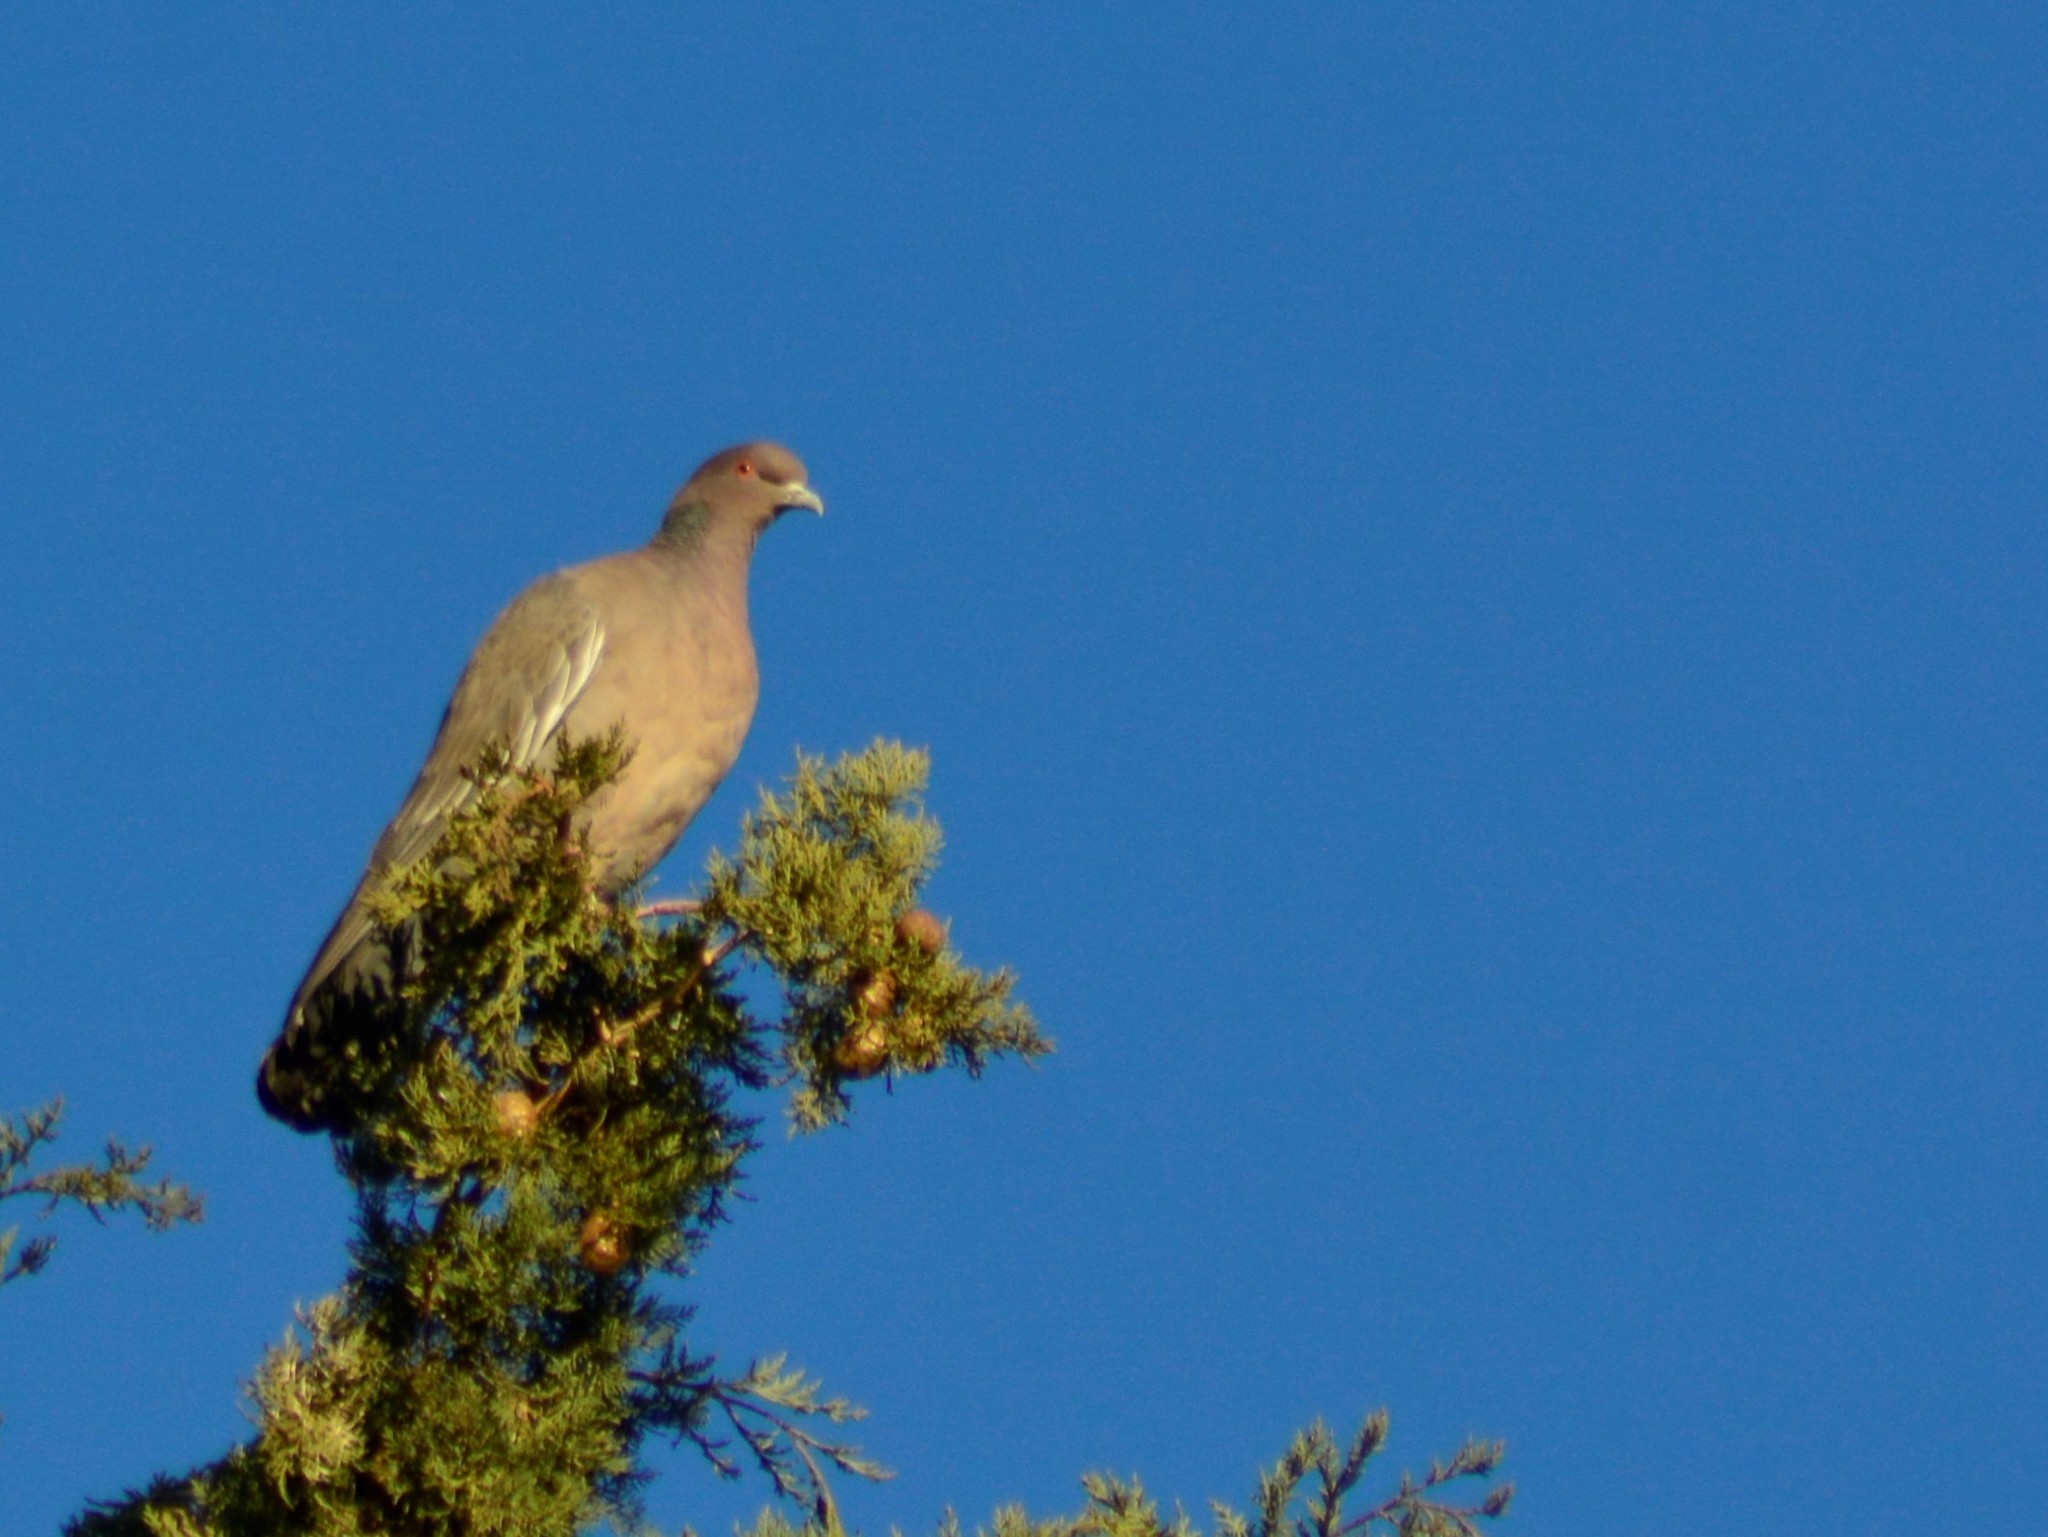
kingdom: Animalia
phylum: Chordata
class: Aves
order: Columbiformes
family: Columbidae
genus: Patagioenas
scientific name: Patagioenas picazuro
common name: Picazuro pigeon
